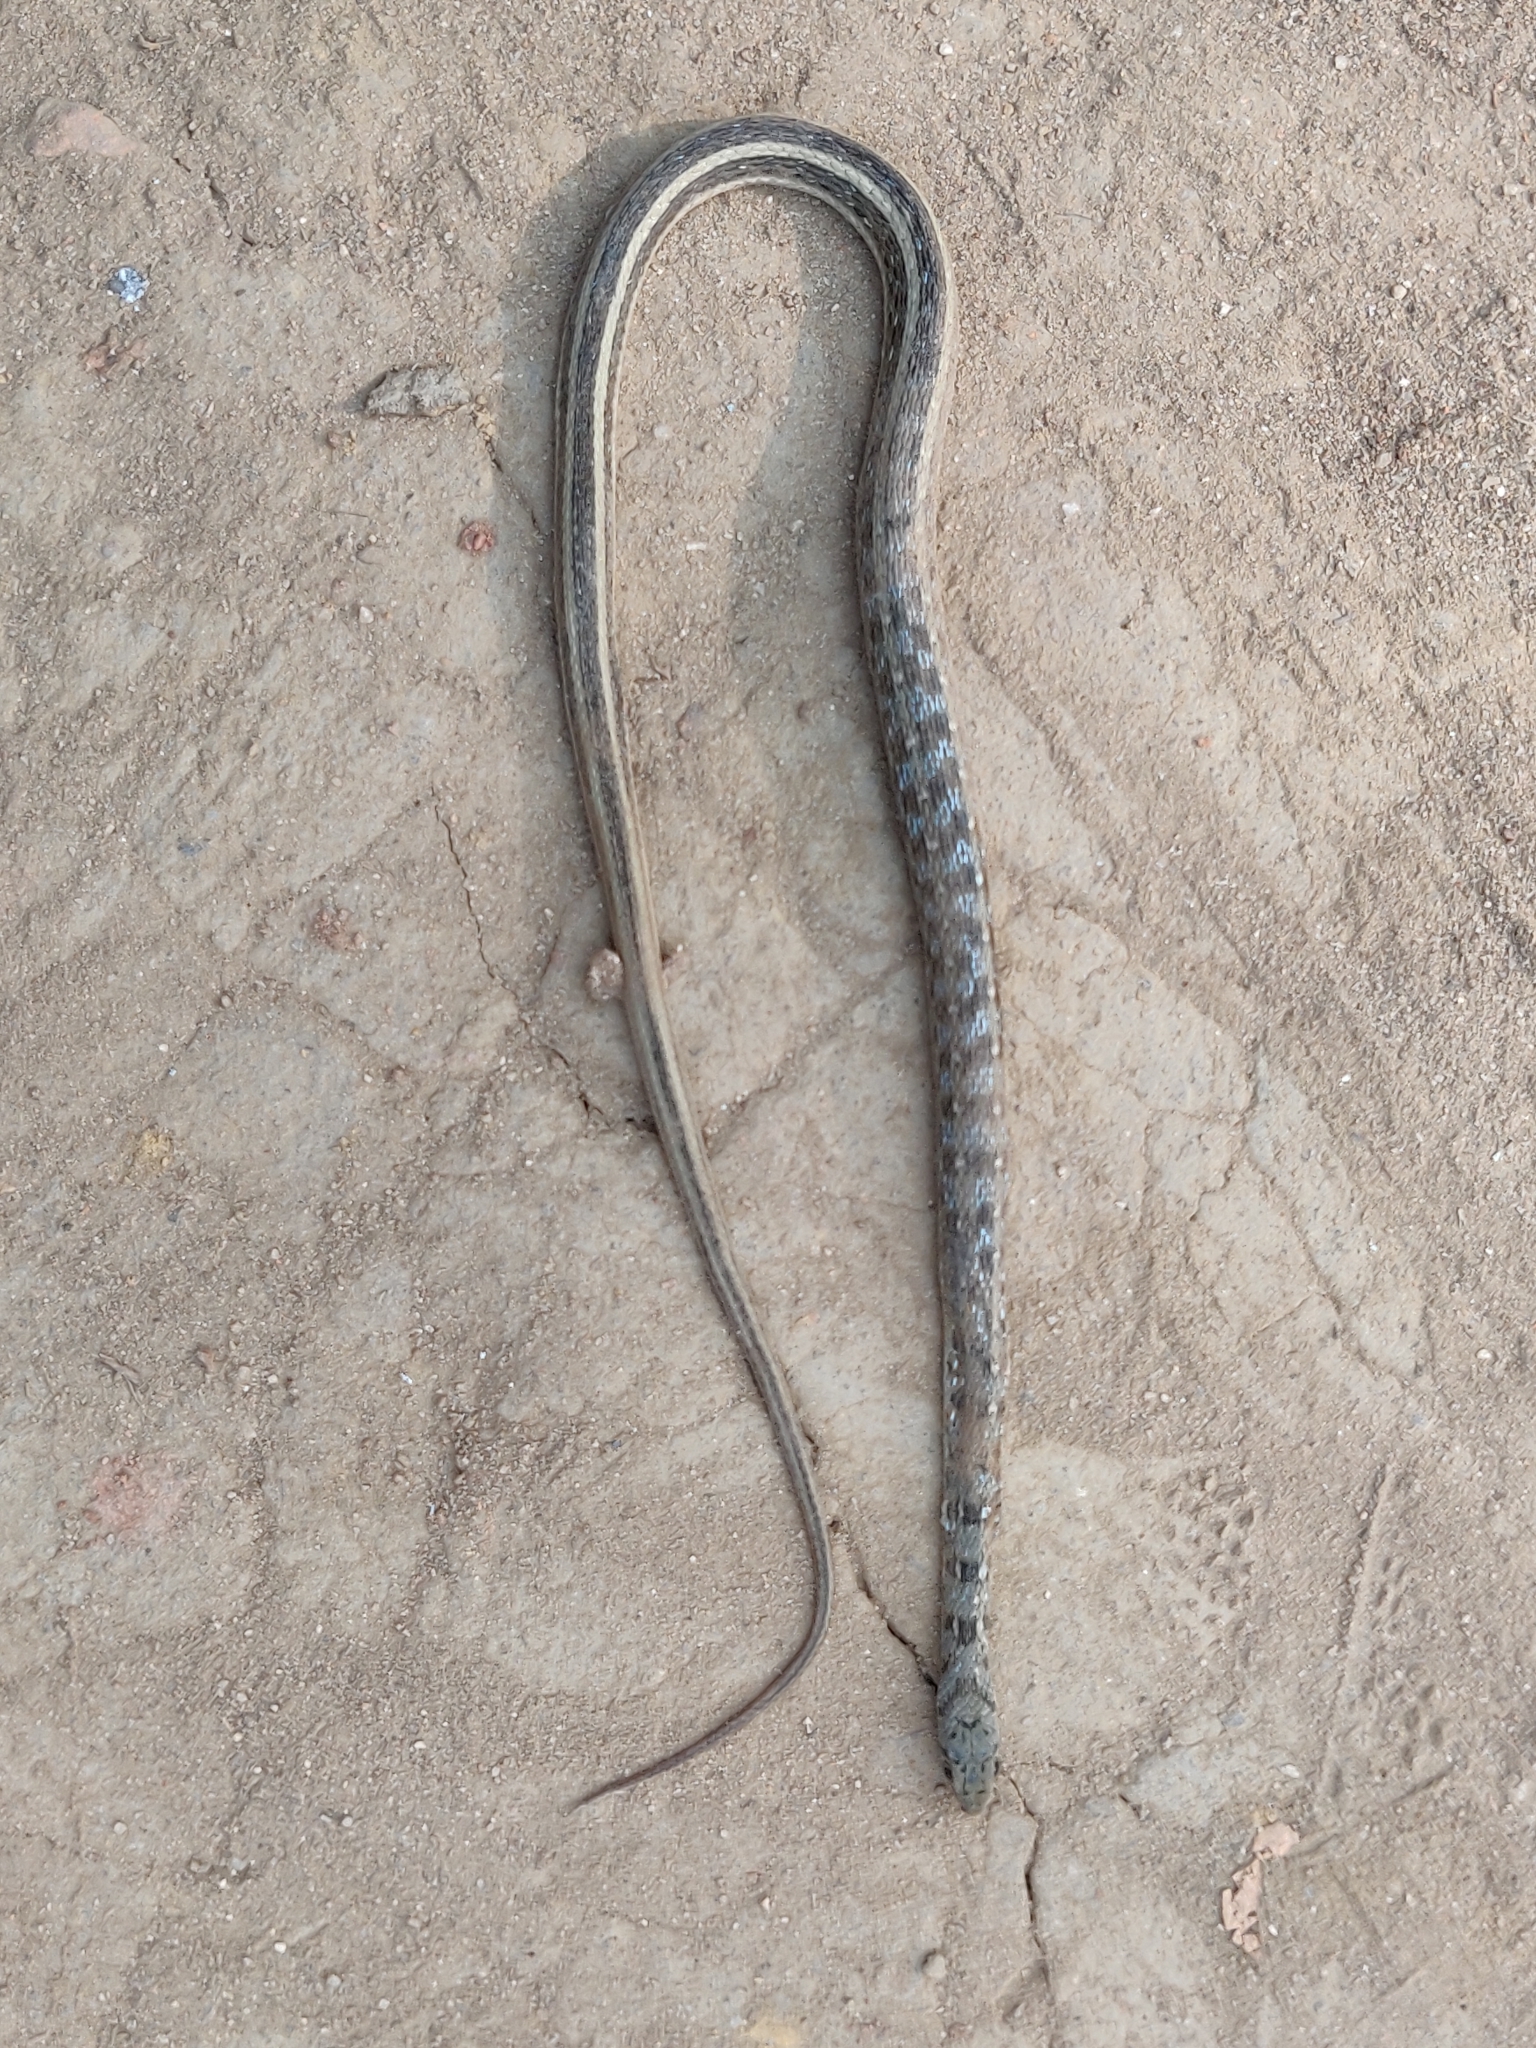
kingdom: Animalia
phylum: Chordata
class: Squamata
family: Colubridae
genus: Amphiesma
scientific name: Amphiesma stolatum
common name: Buff striped keelback
